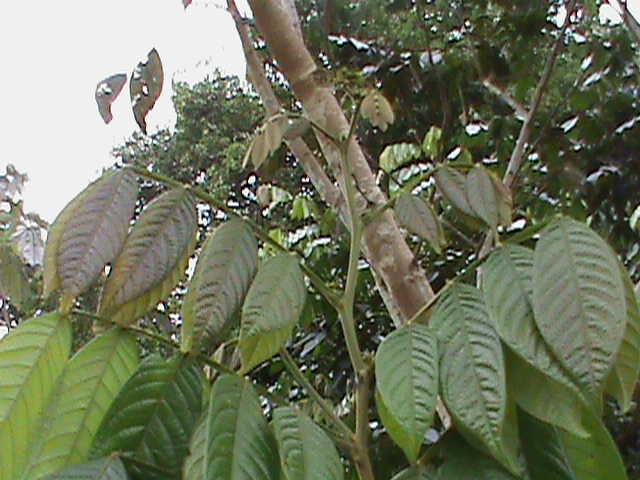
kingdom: Plantae
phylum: Tracheophyta
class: Magnoliopsida
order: Myrtales
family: Myrtaceae
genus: Psidium
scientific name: Psidium guajava
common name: Guava
